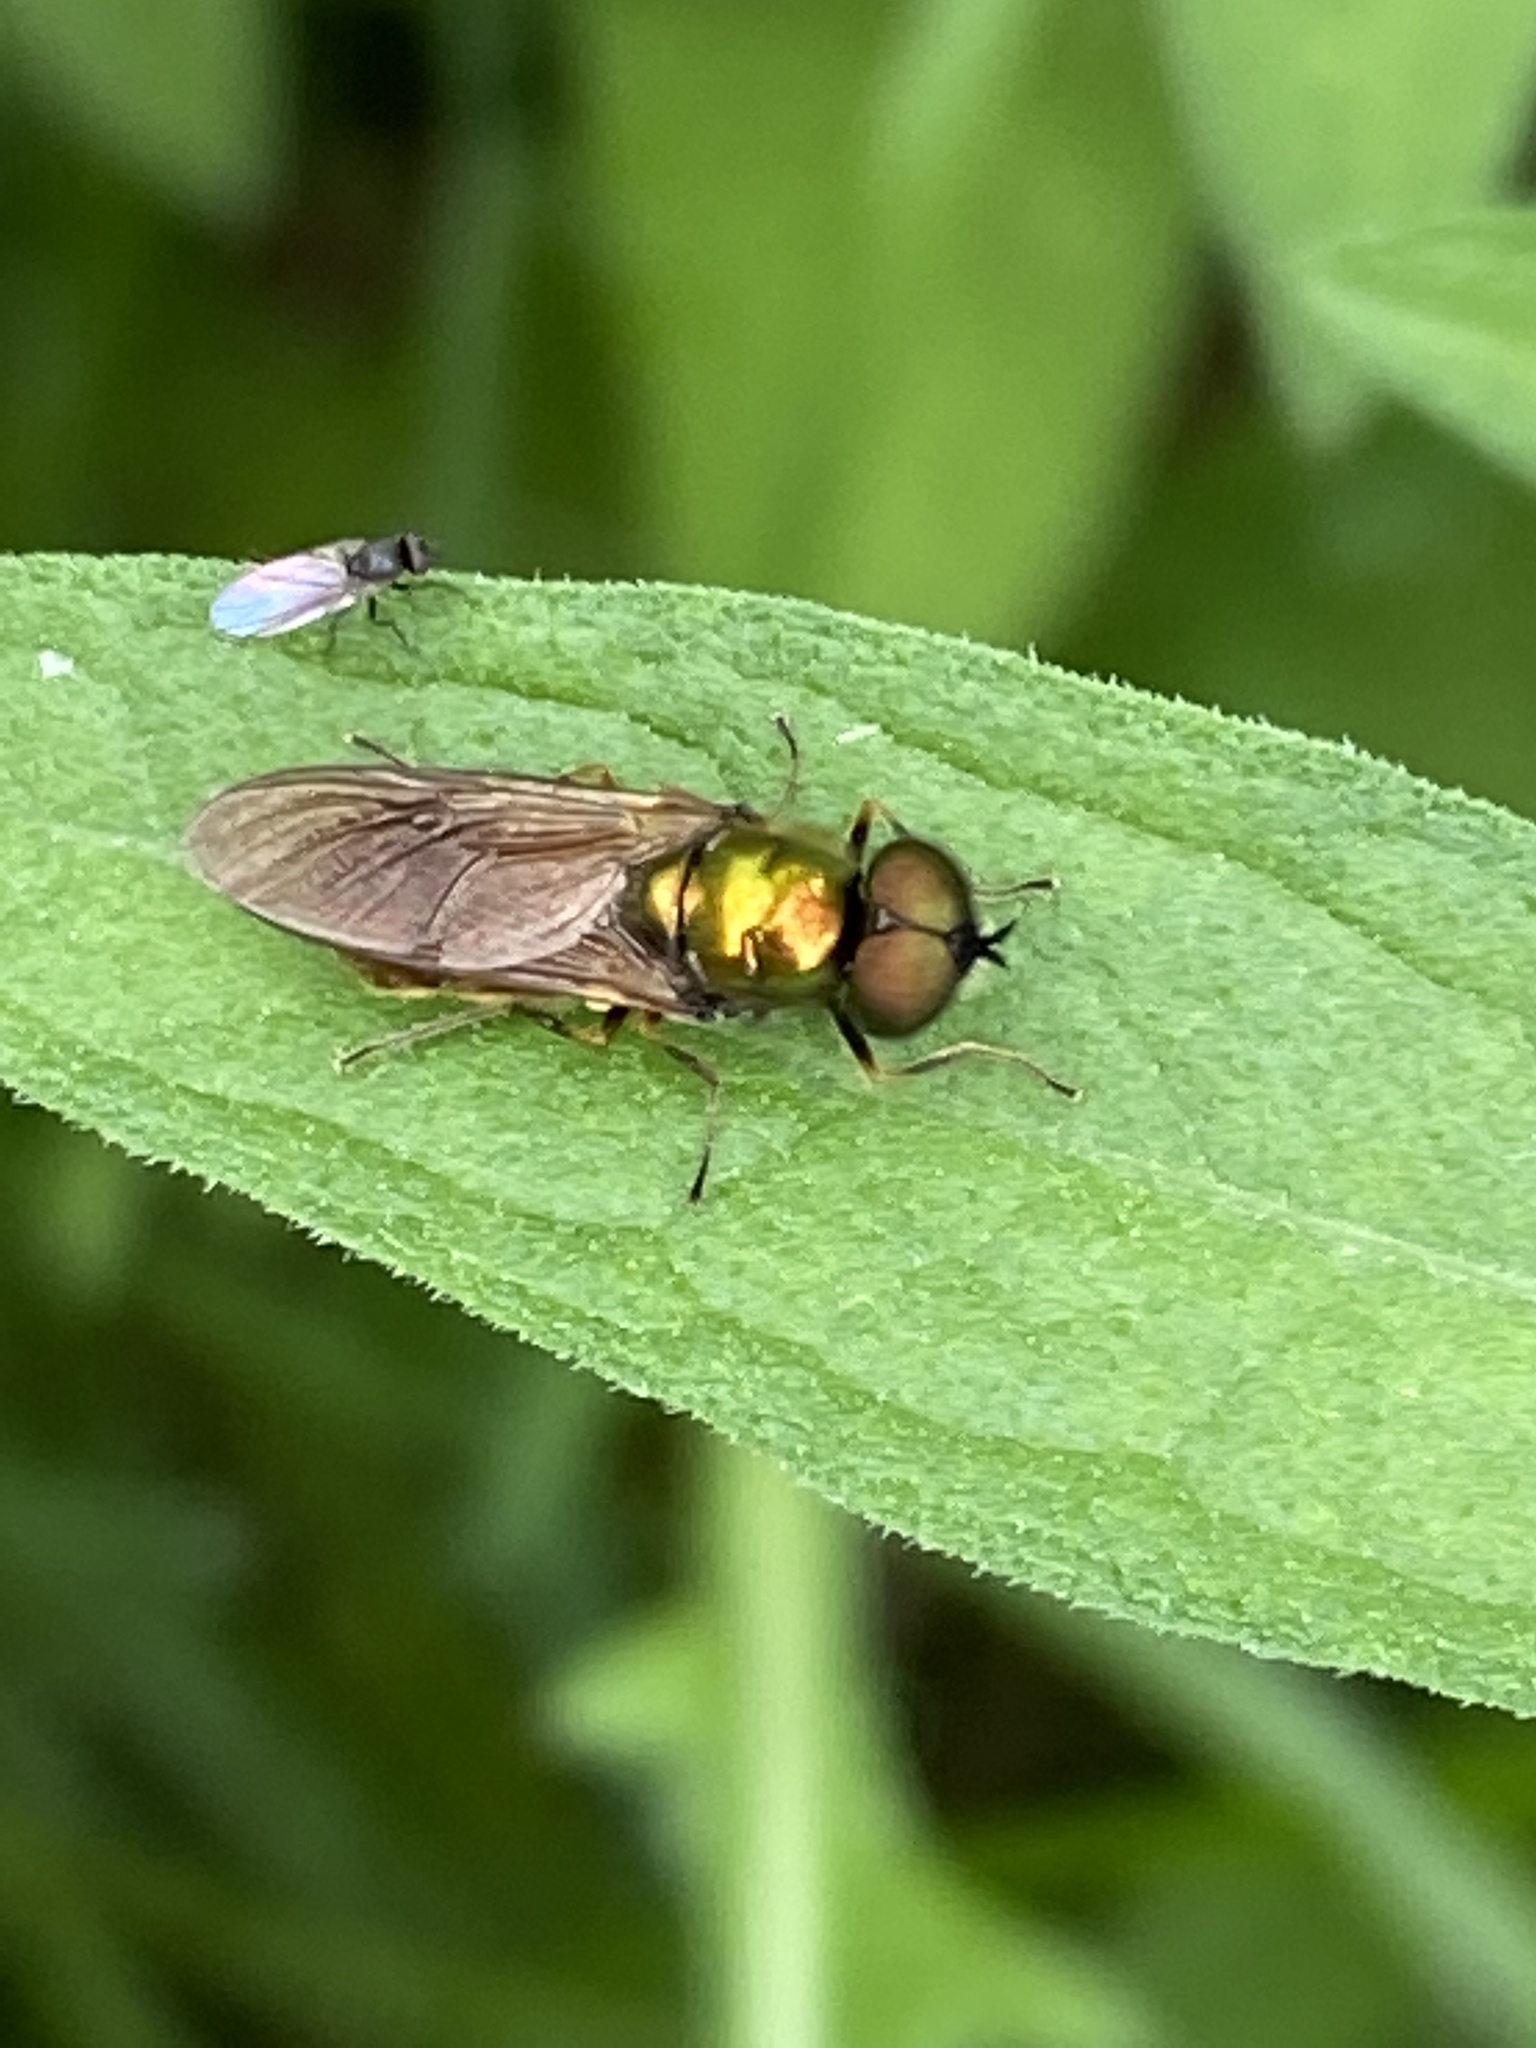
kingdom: Animalia
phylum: Arthropoda
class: Insecta
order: Diptera
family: Stratiomyidae
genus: Chloromyia
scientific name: Chloromyia formosa
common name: Soldier fly
